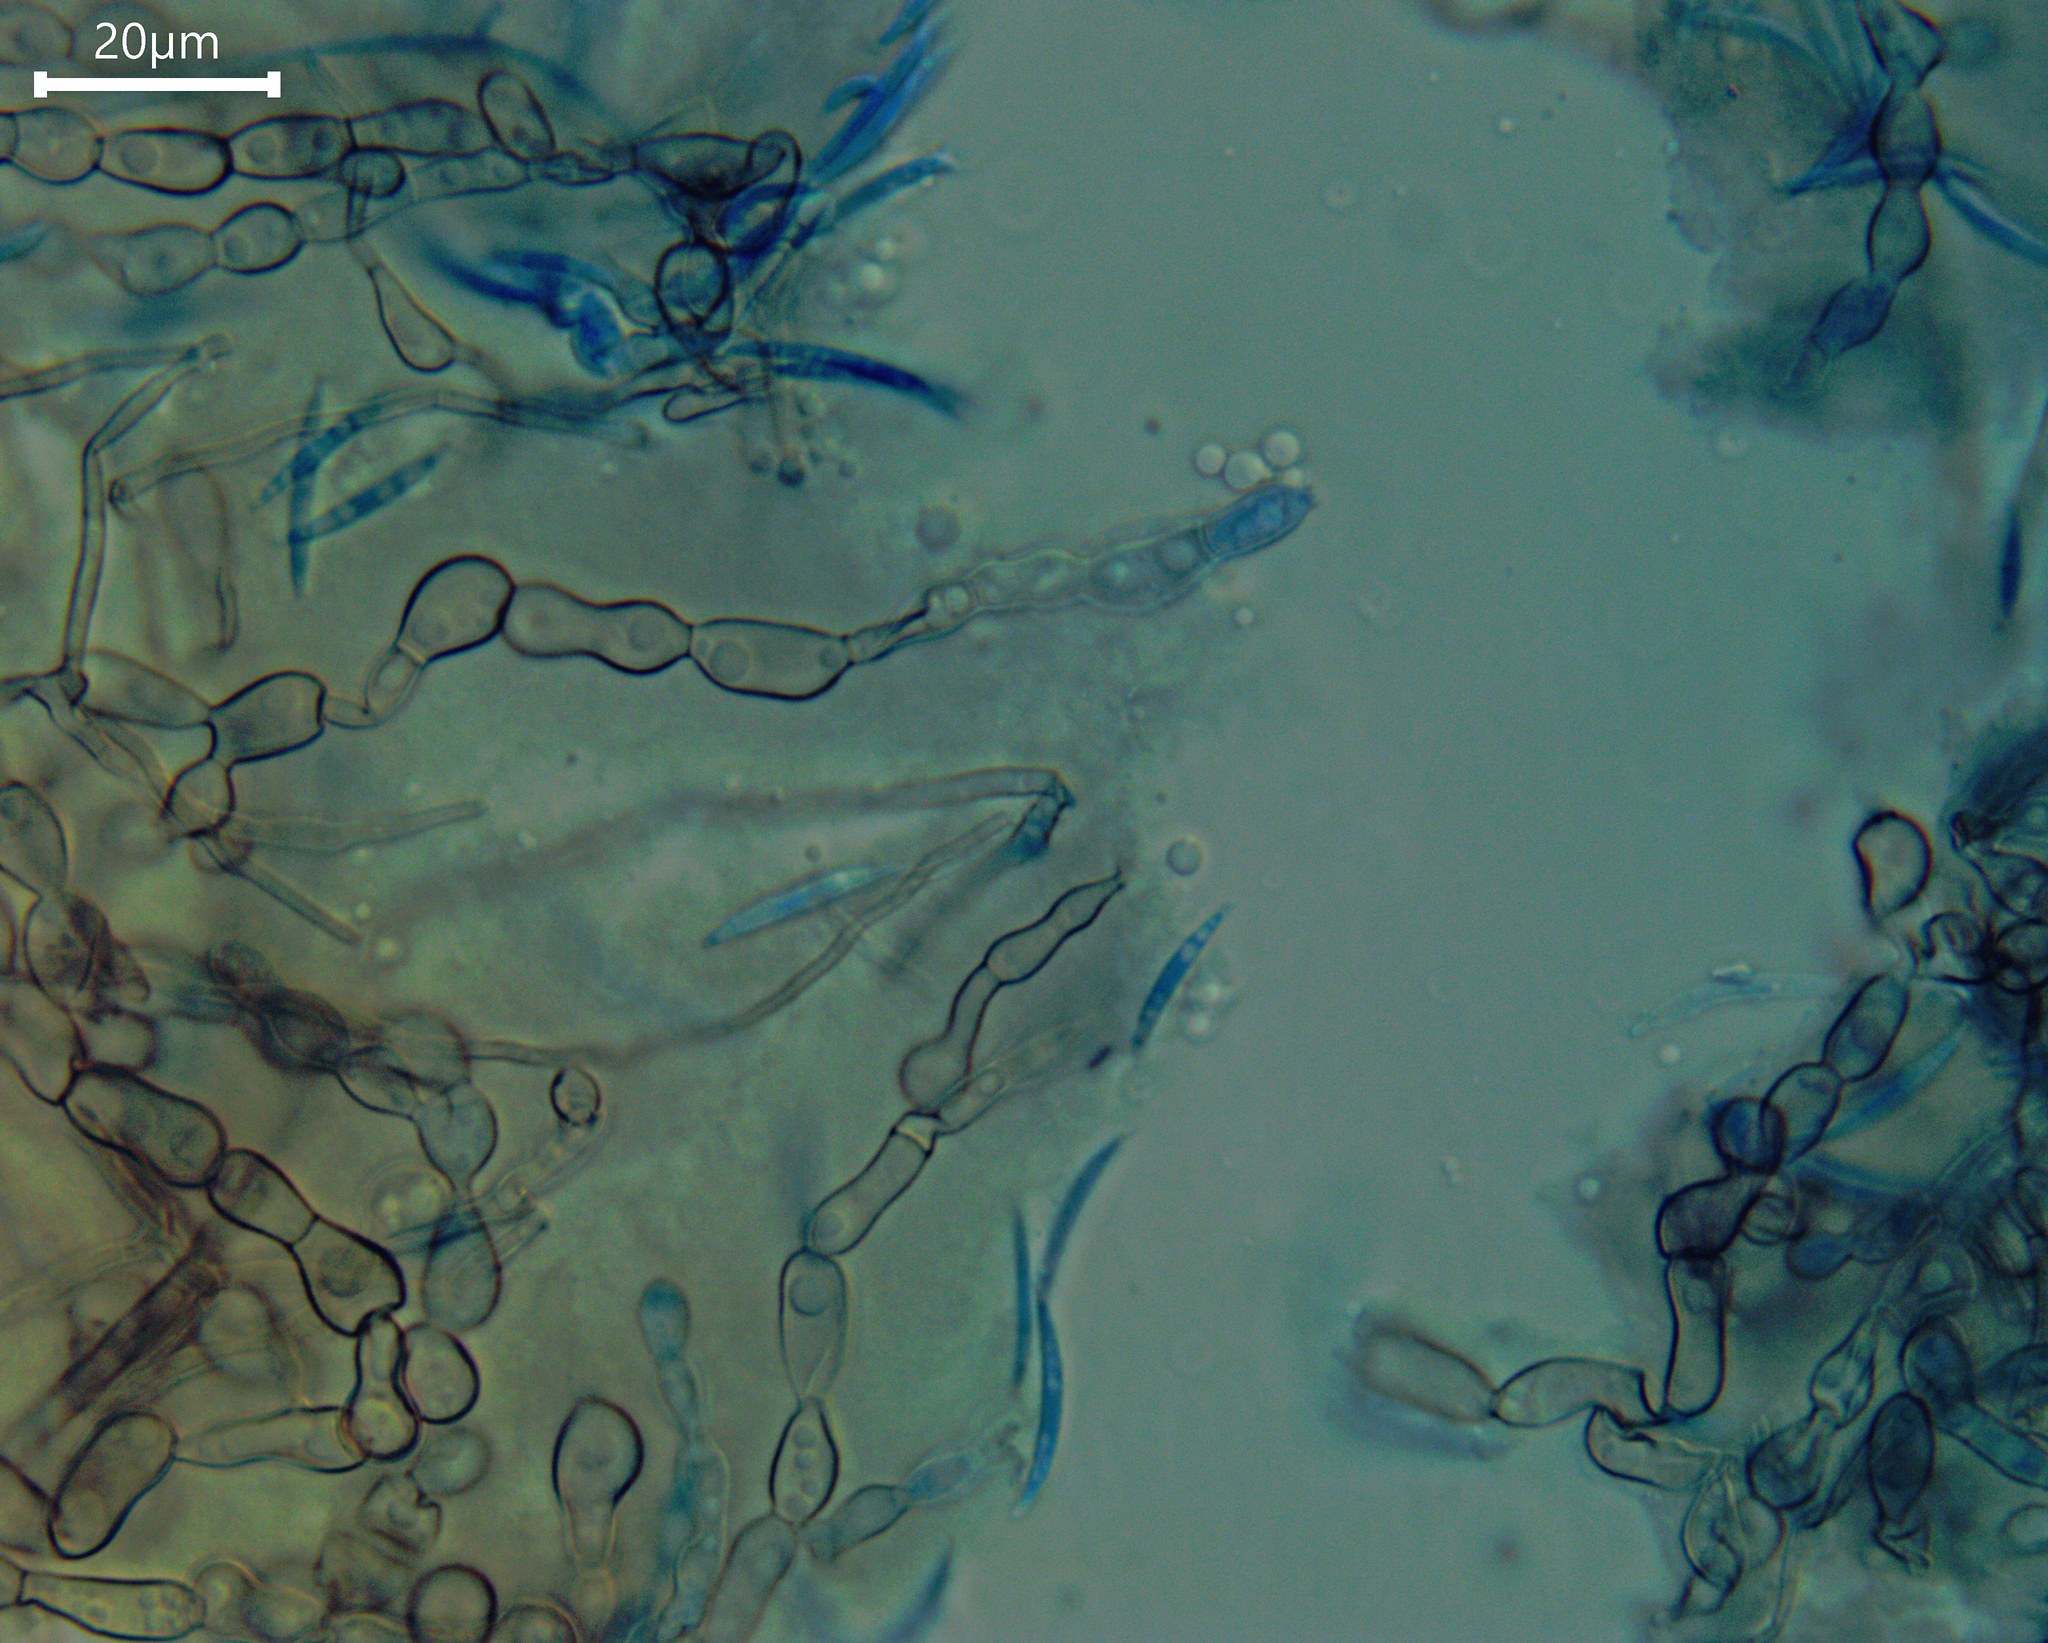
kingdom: Fungi
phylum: Ascomycota
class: Sordariomycetes
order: Xylariales
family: Castanediellaceae
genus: Castanediella
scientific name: Castanediella eucalypticola
